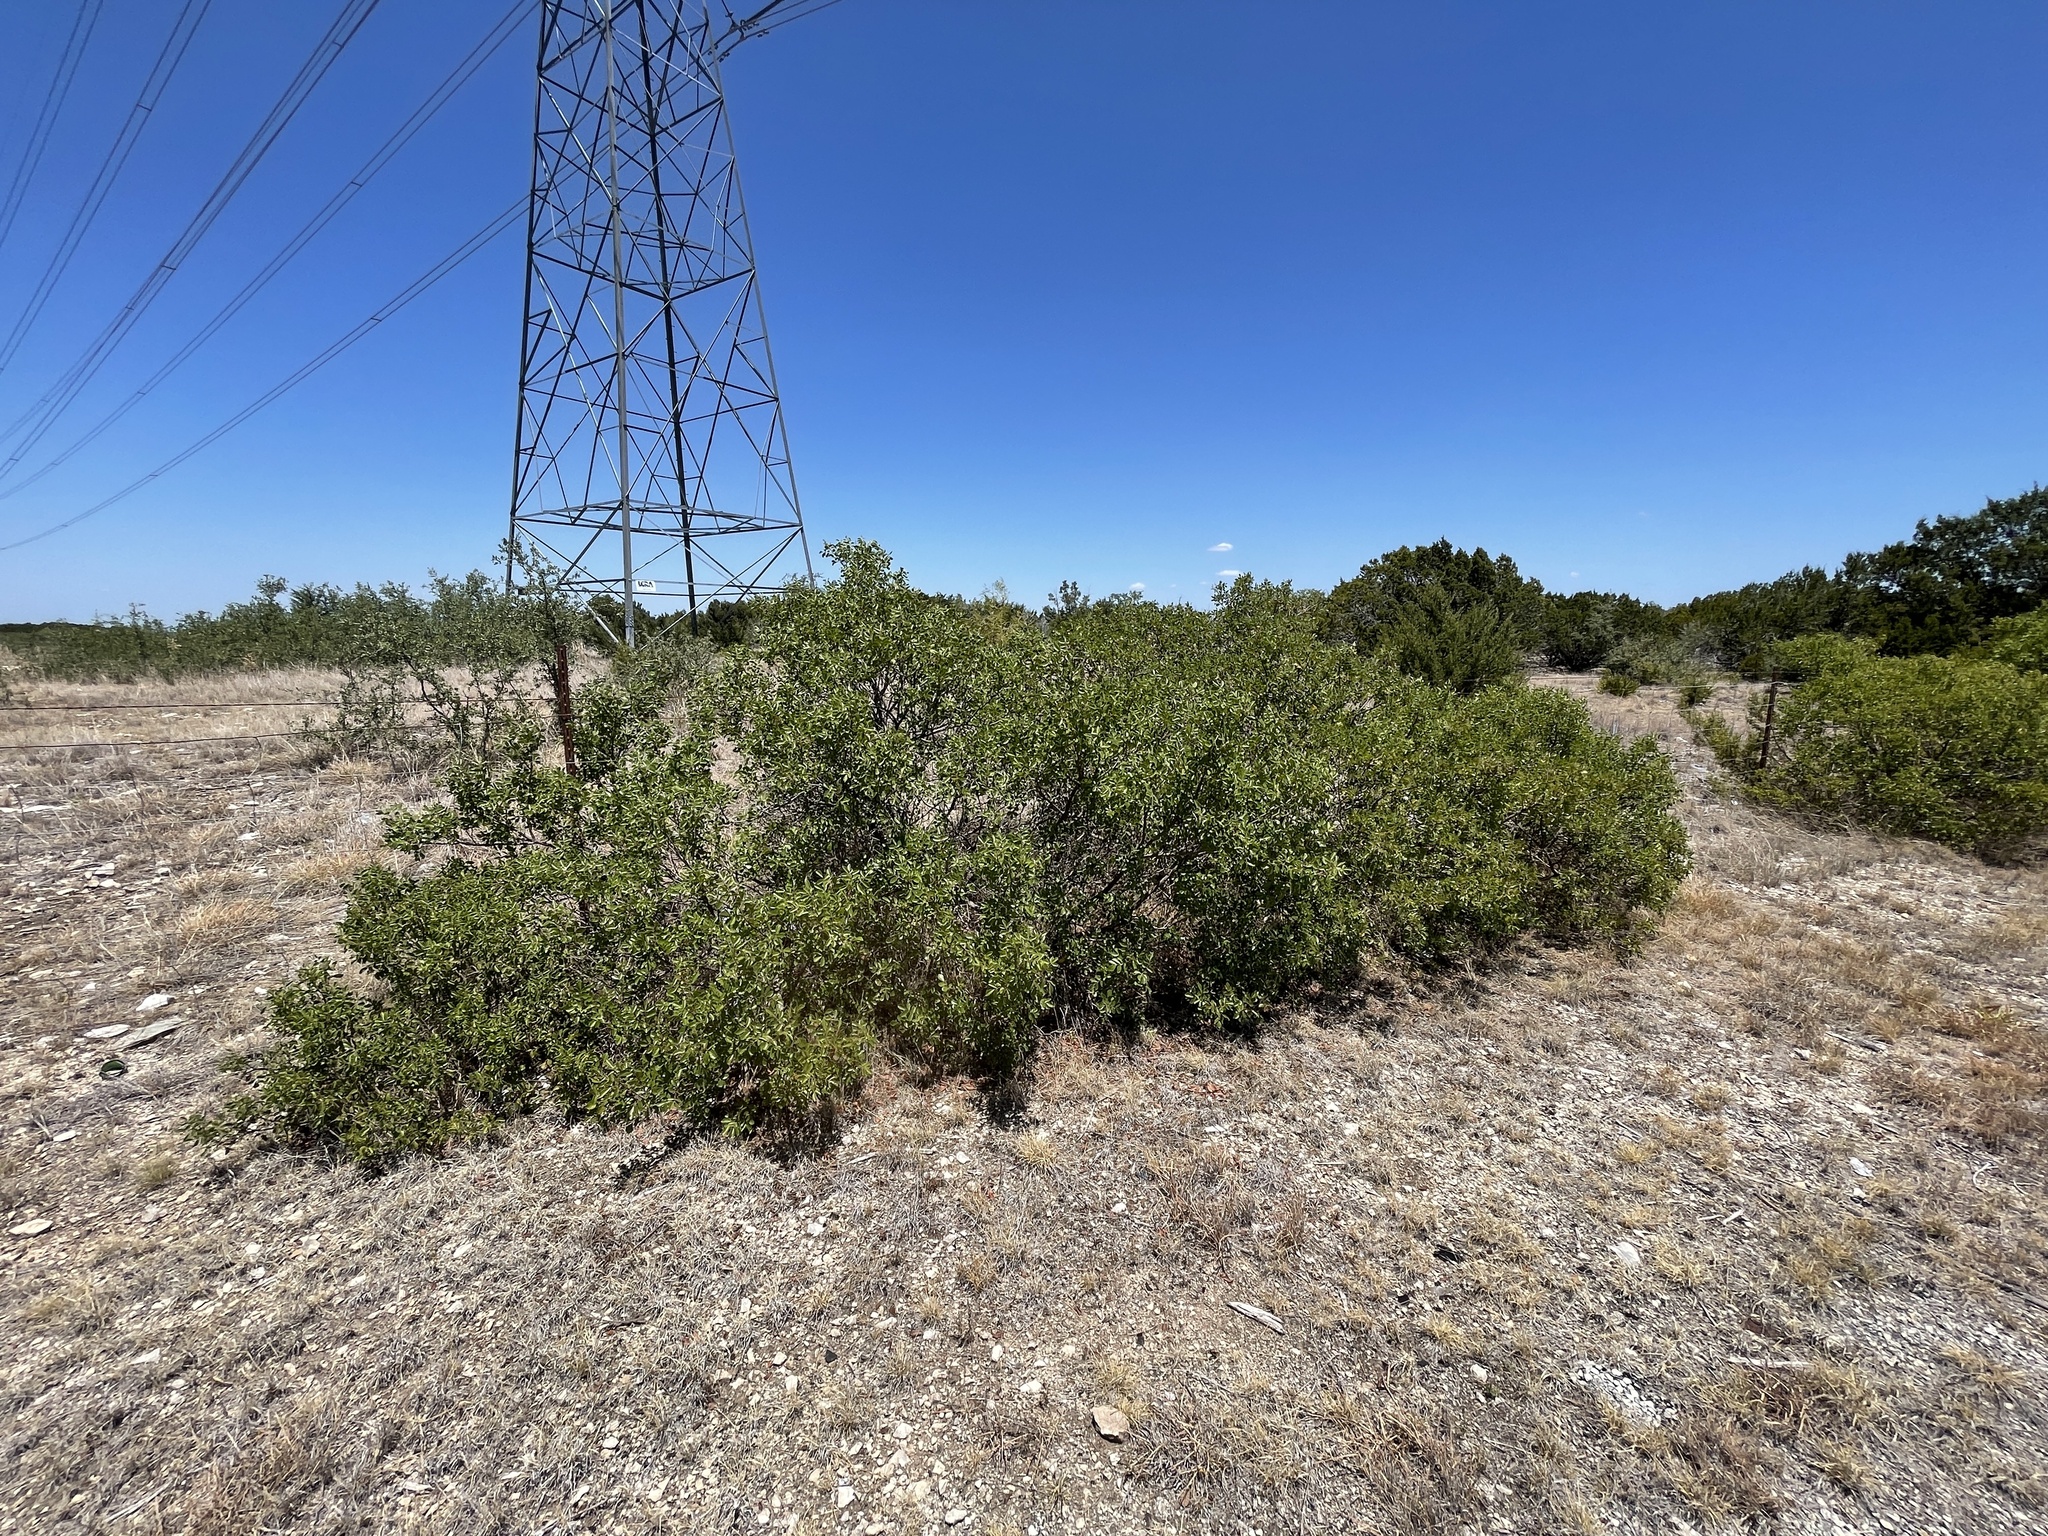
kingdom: Plantae
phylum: Tracheophyta
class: Magnoliopsida
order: Sapindales
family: Anacardiaceae
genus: Rhus
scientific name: Rhus virens
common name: Evergreen sumac
